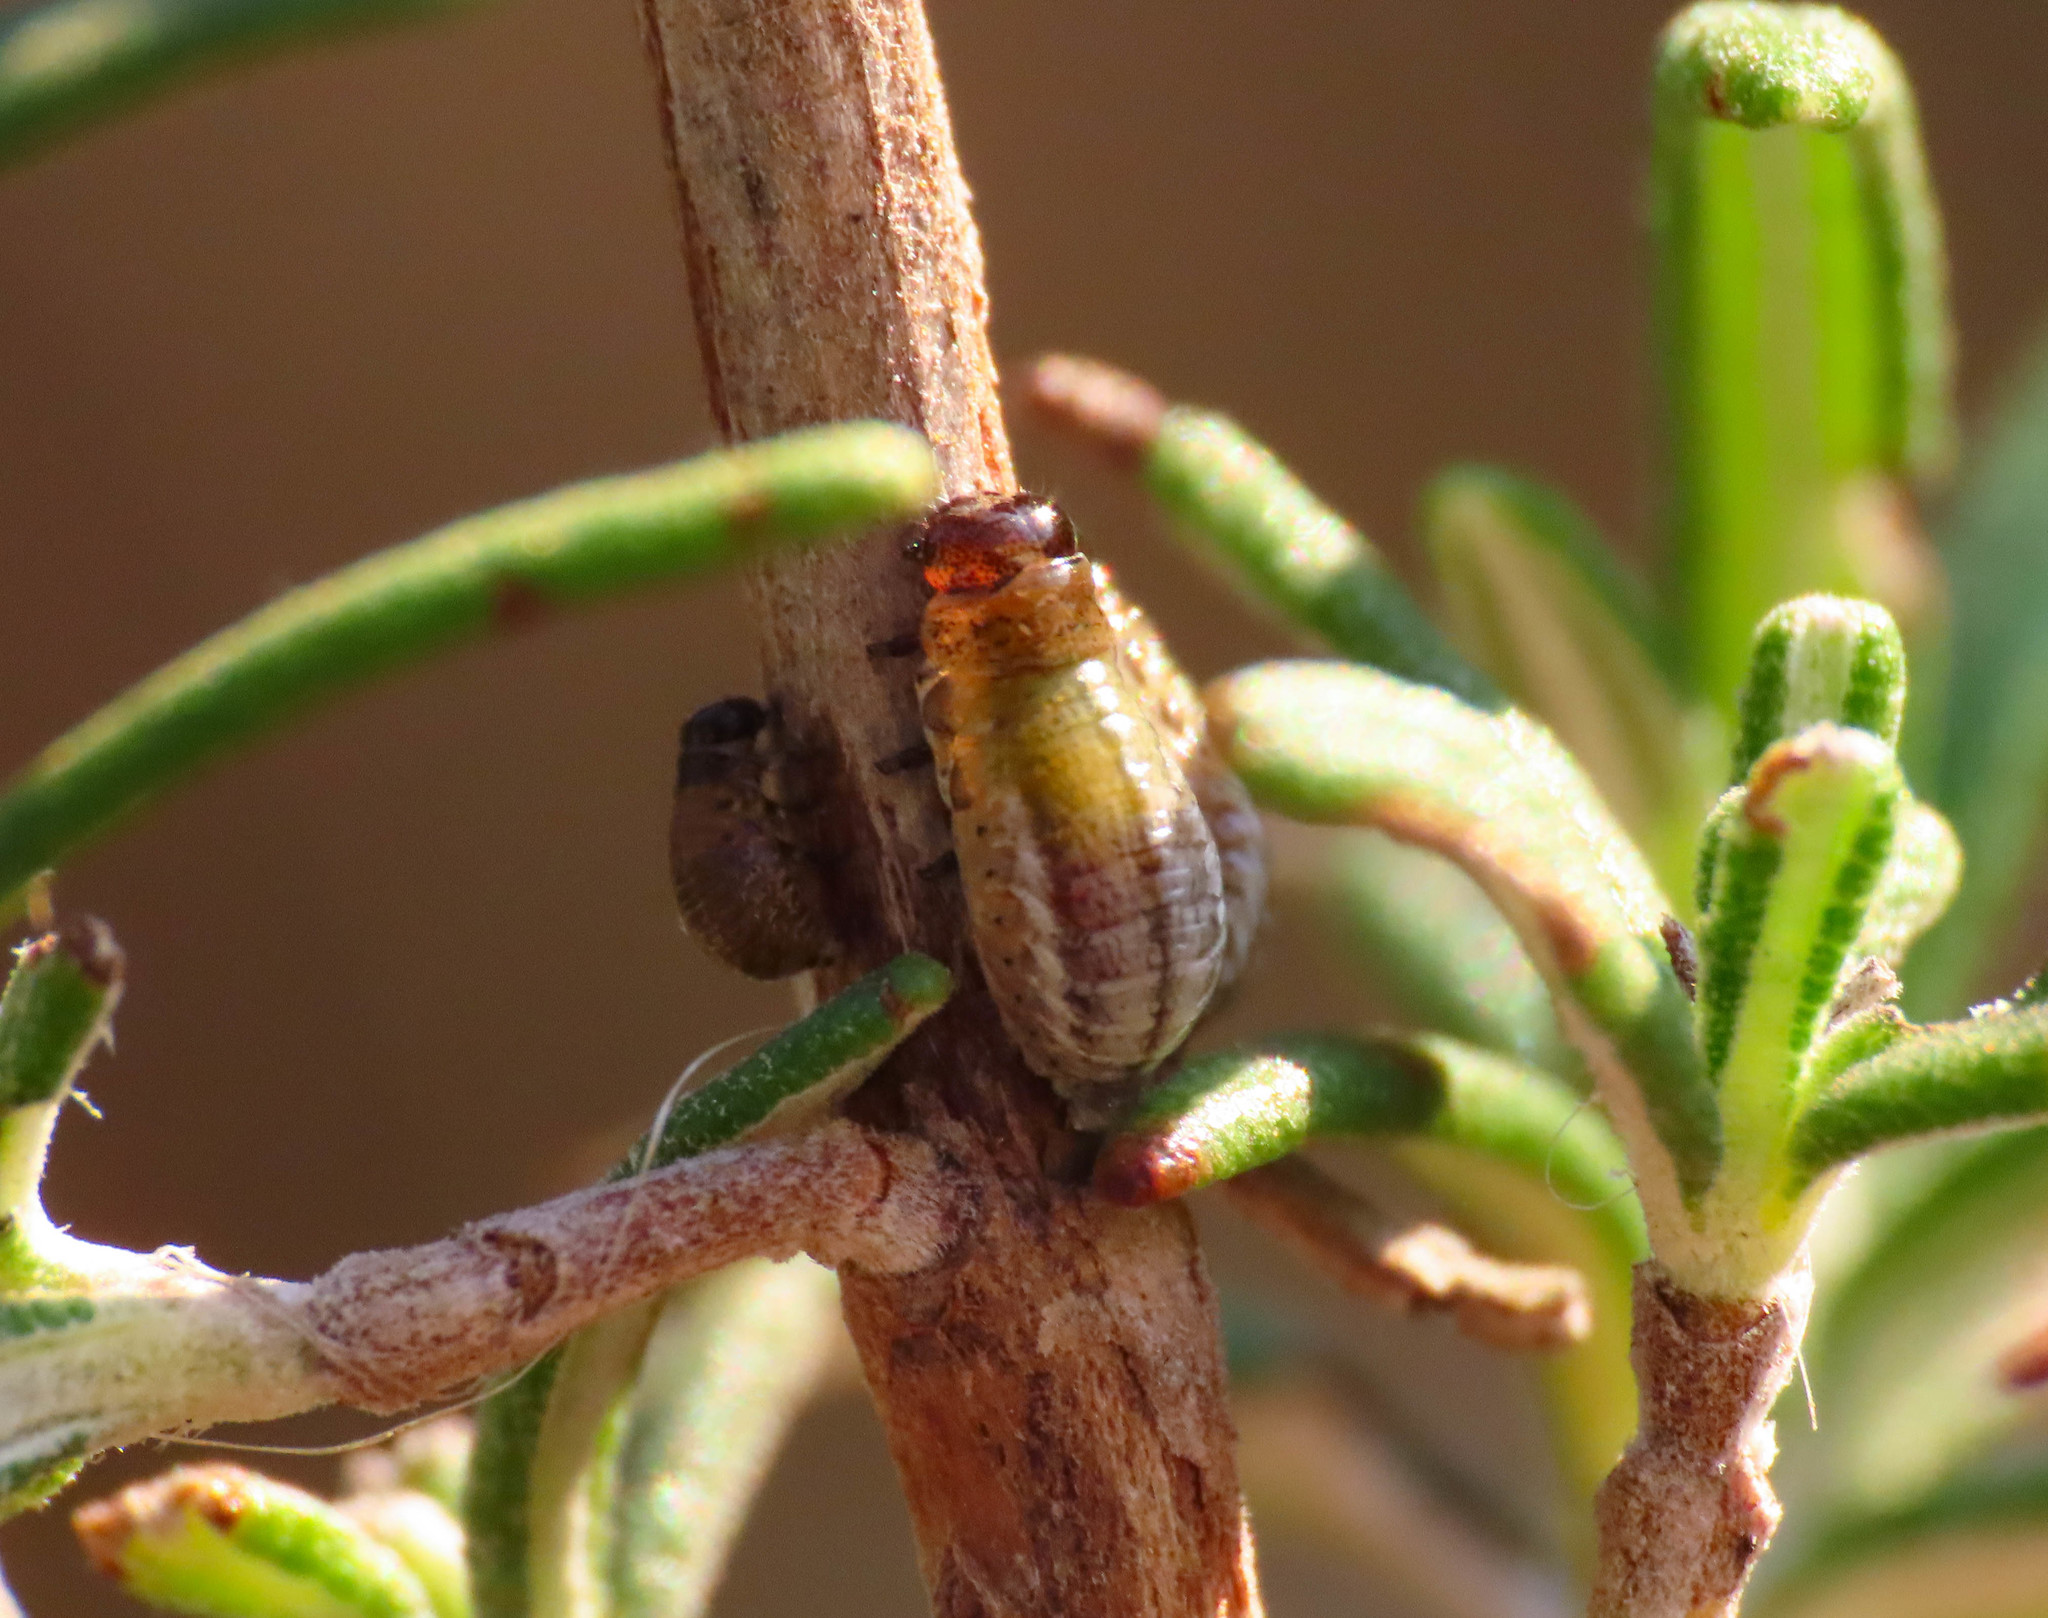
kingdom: Animalia
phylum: Arthropoda
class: Insecta
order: Coleoptera
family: Chrysomelidae
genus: Chrysolina
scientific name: Chrysolina americana
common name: Rosemary beetle
